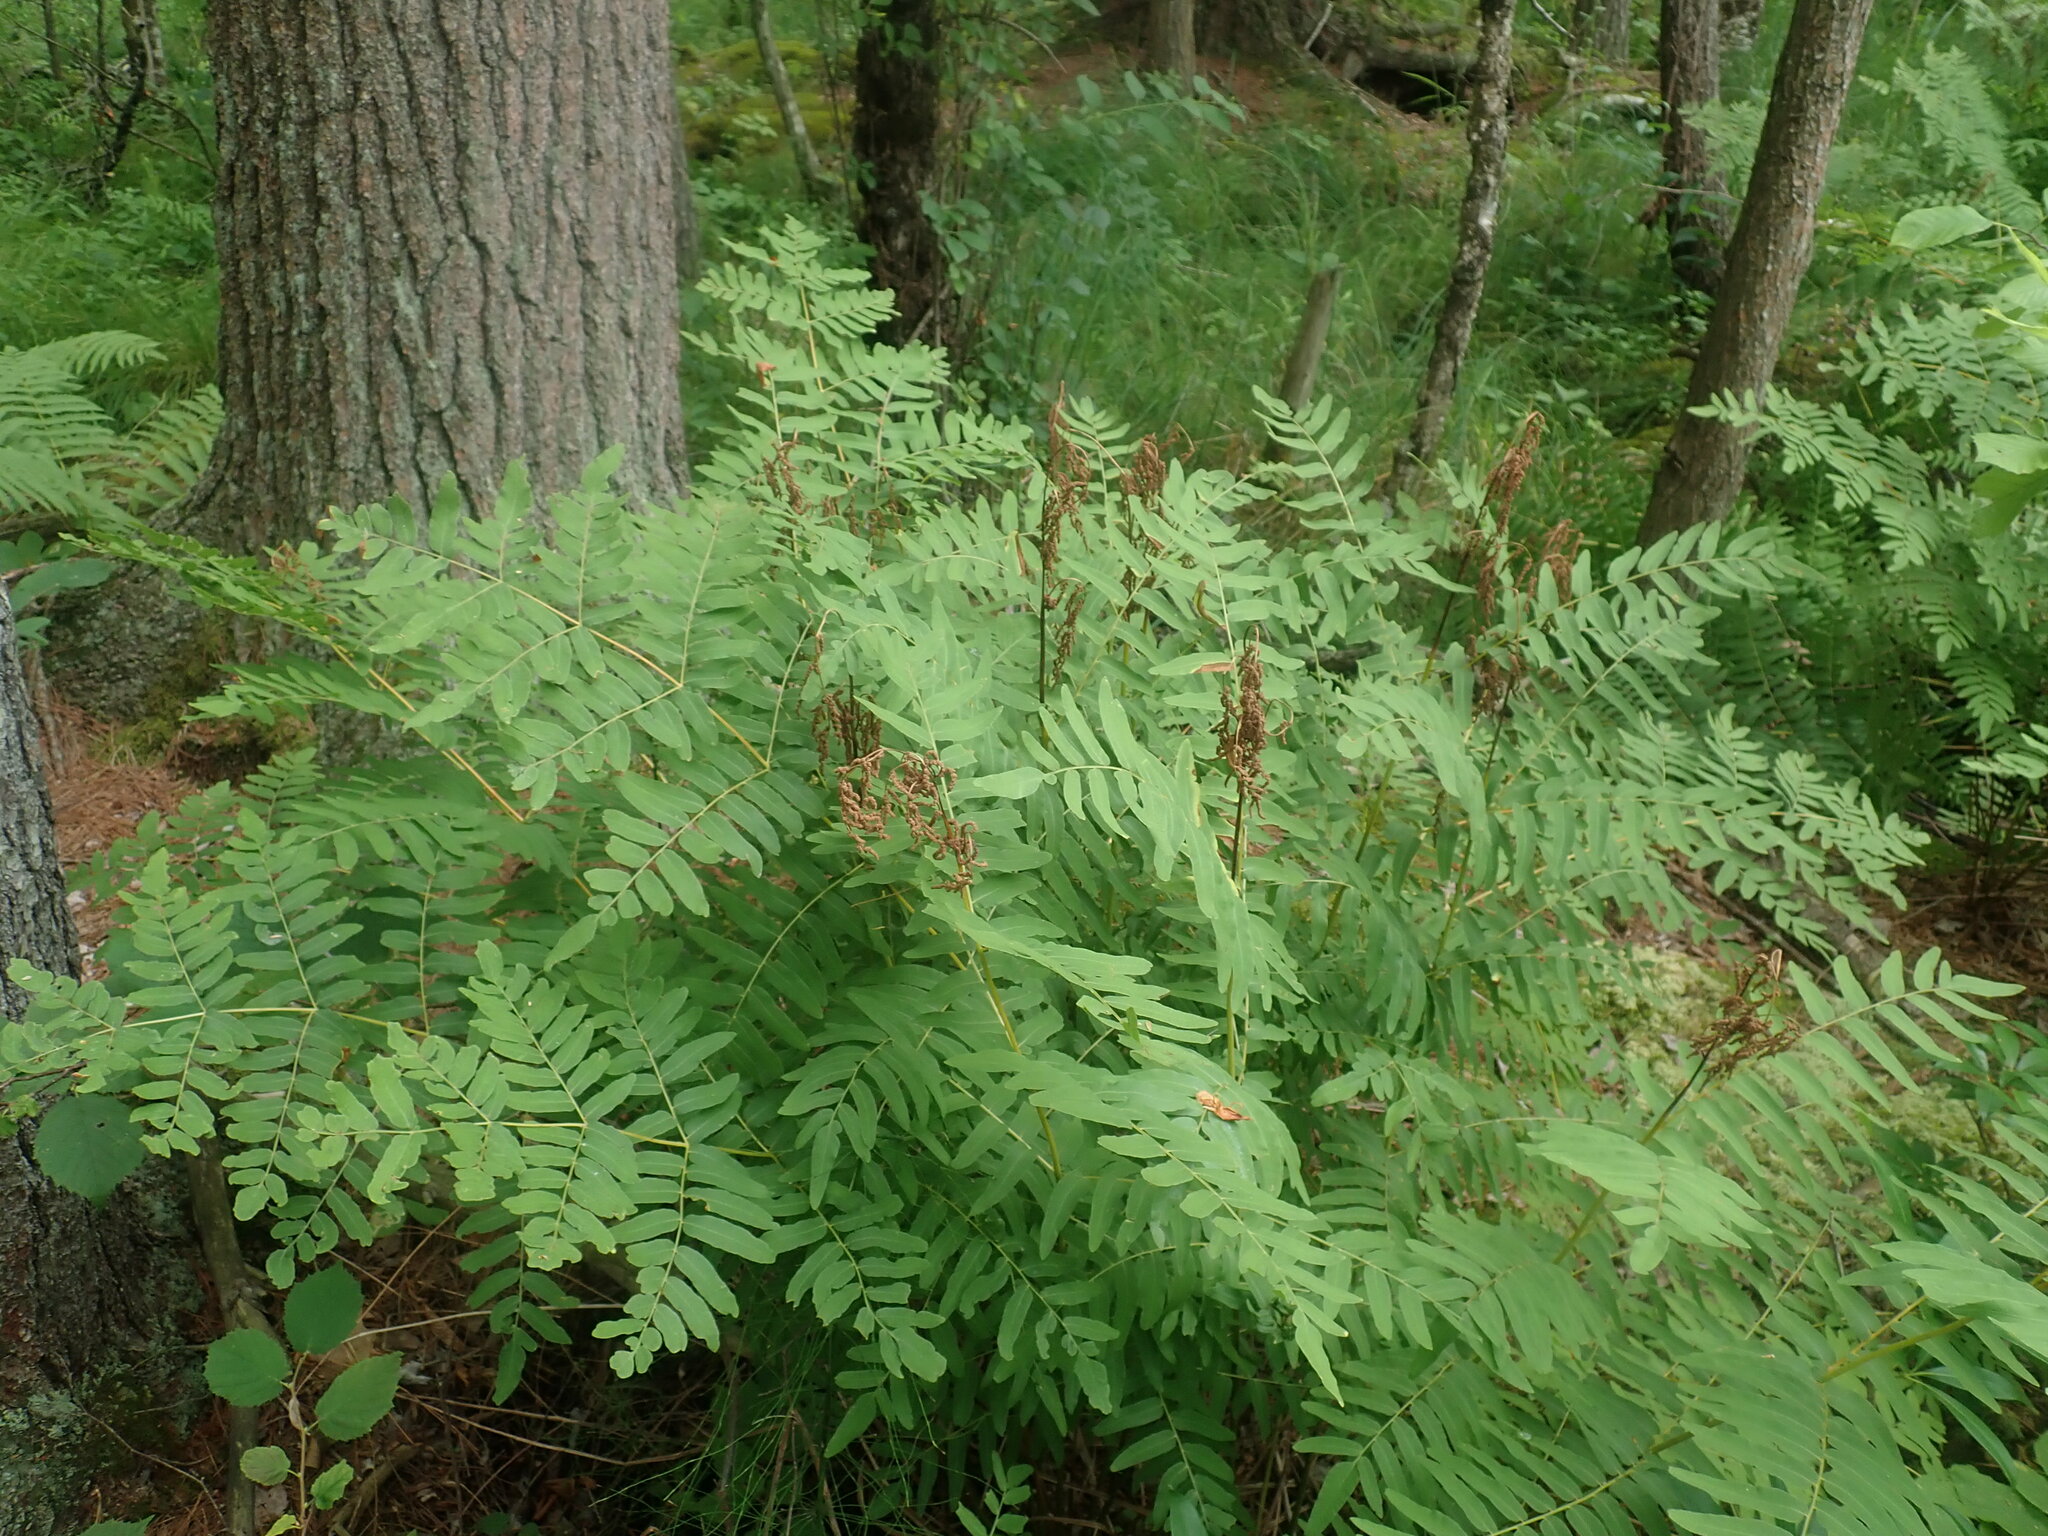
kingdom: Plantae
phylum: Tracheophyta
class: Polypodiopsida
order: Osmundales
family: Osmundaceae
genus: Osmunda
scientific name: Osmunda spectabilis
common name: American royal fern
